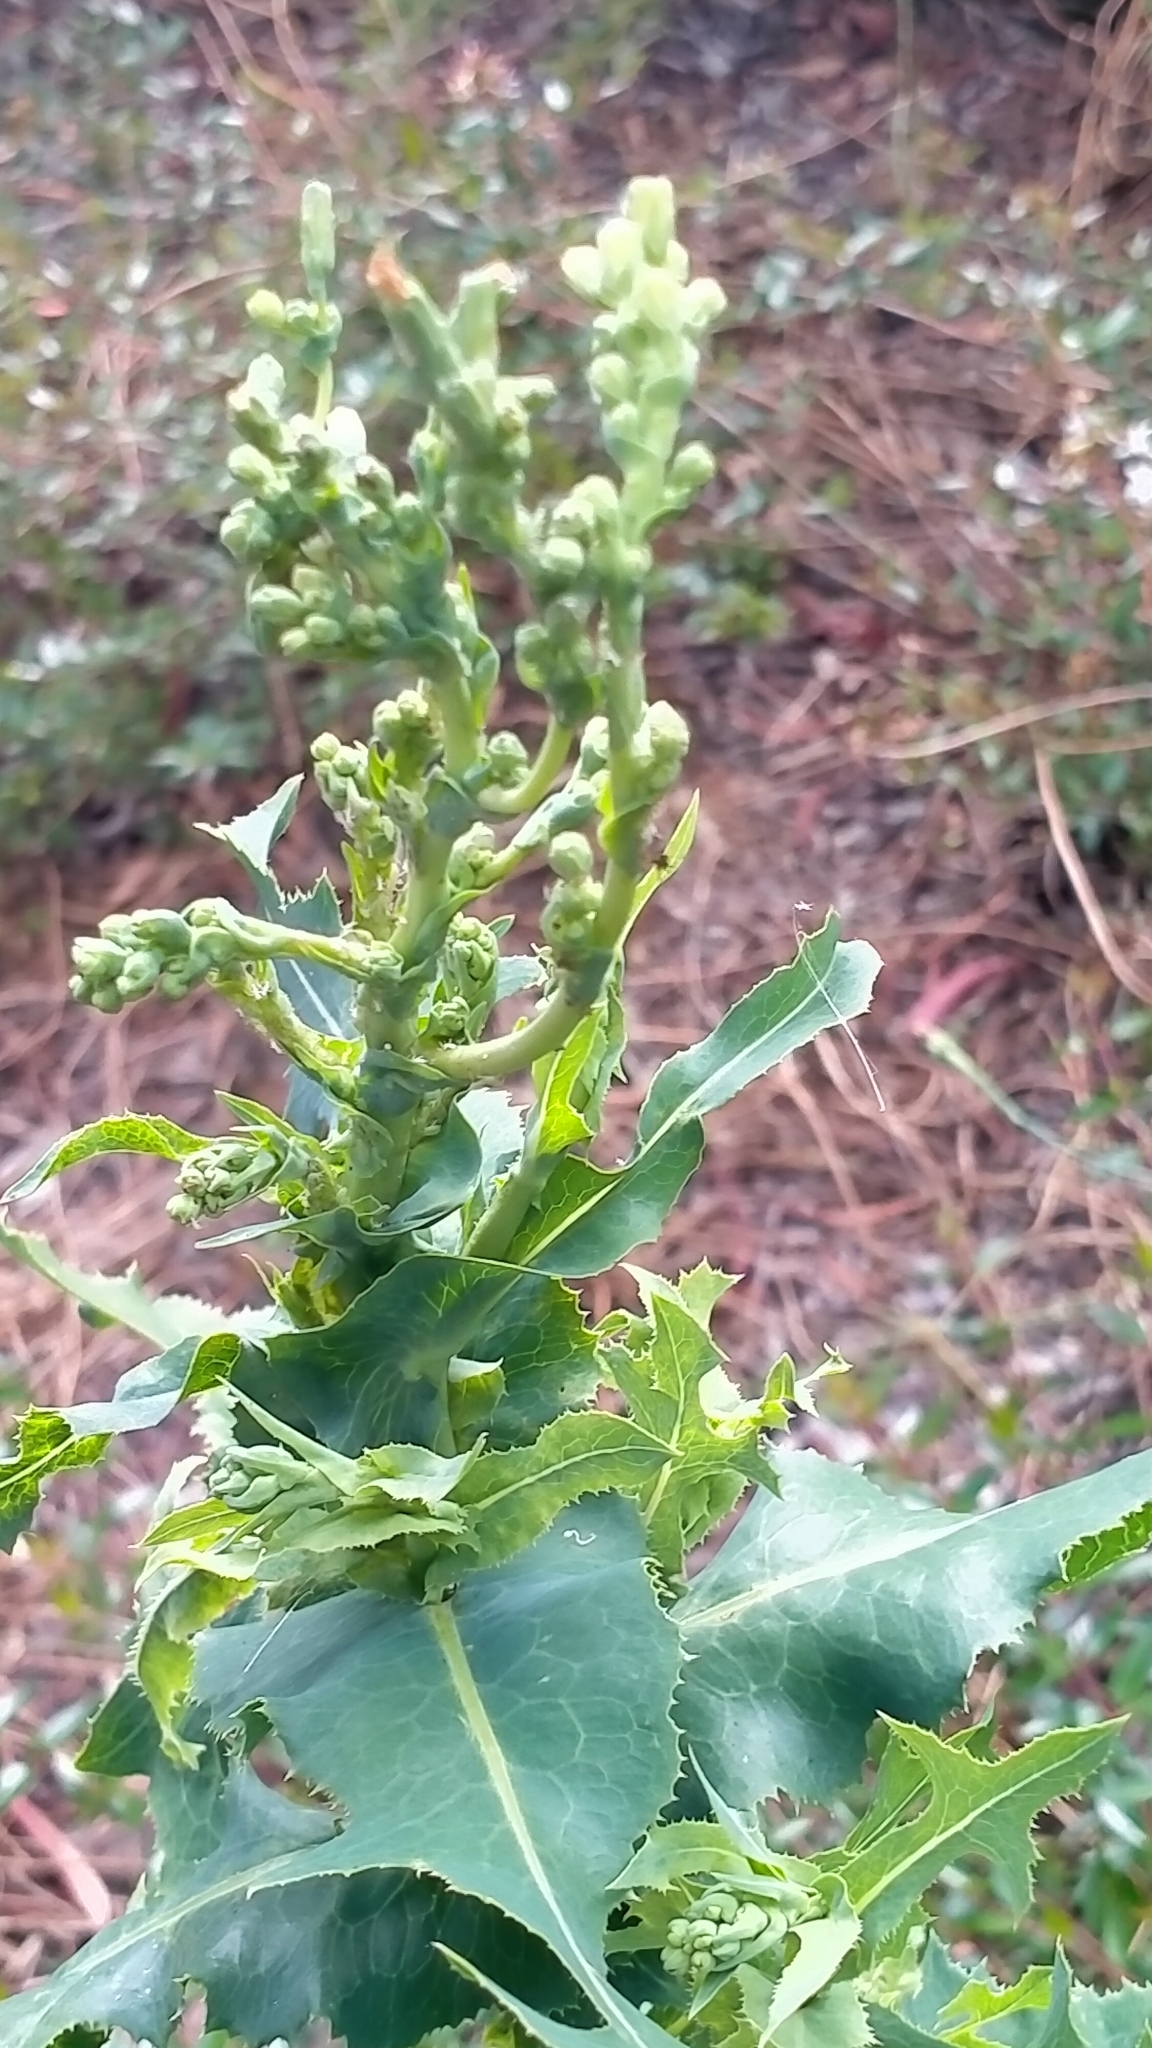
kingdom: Plantae
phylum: Tracheophyta
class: Magnoliopsida
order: Asterales
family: Asteraceae
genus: Lactuca
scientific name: Lactuca serriola
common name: Prickly lettuce
